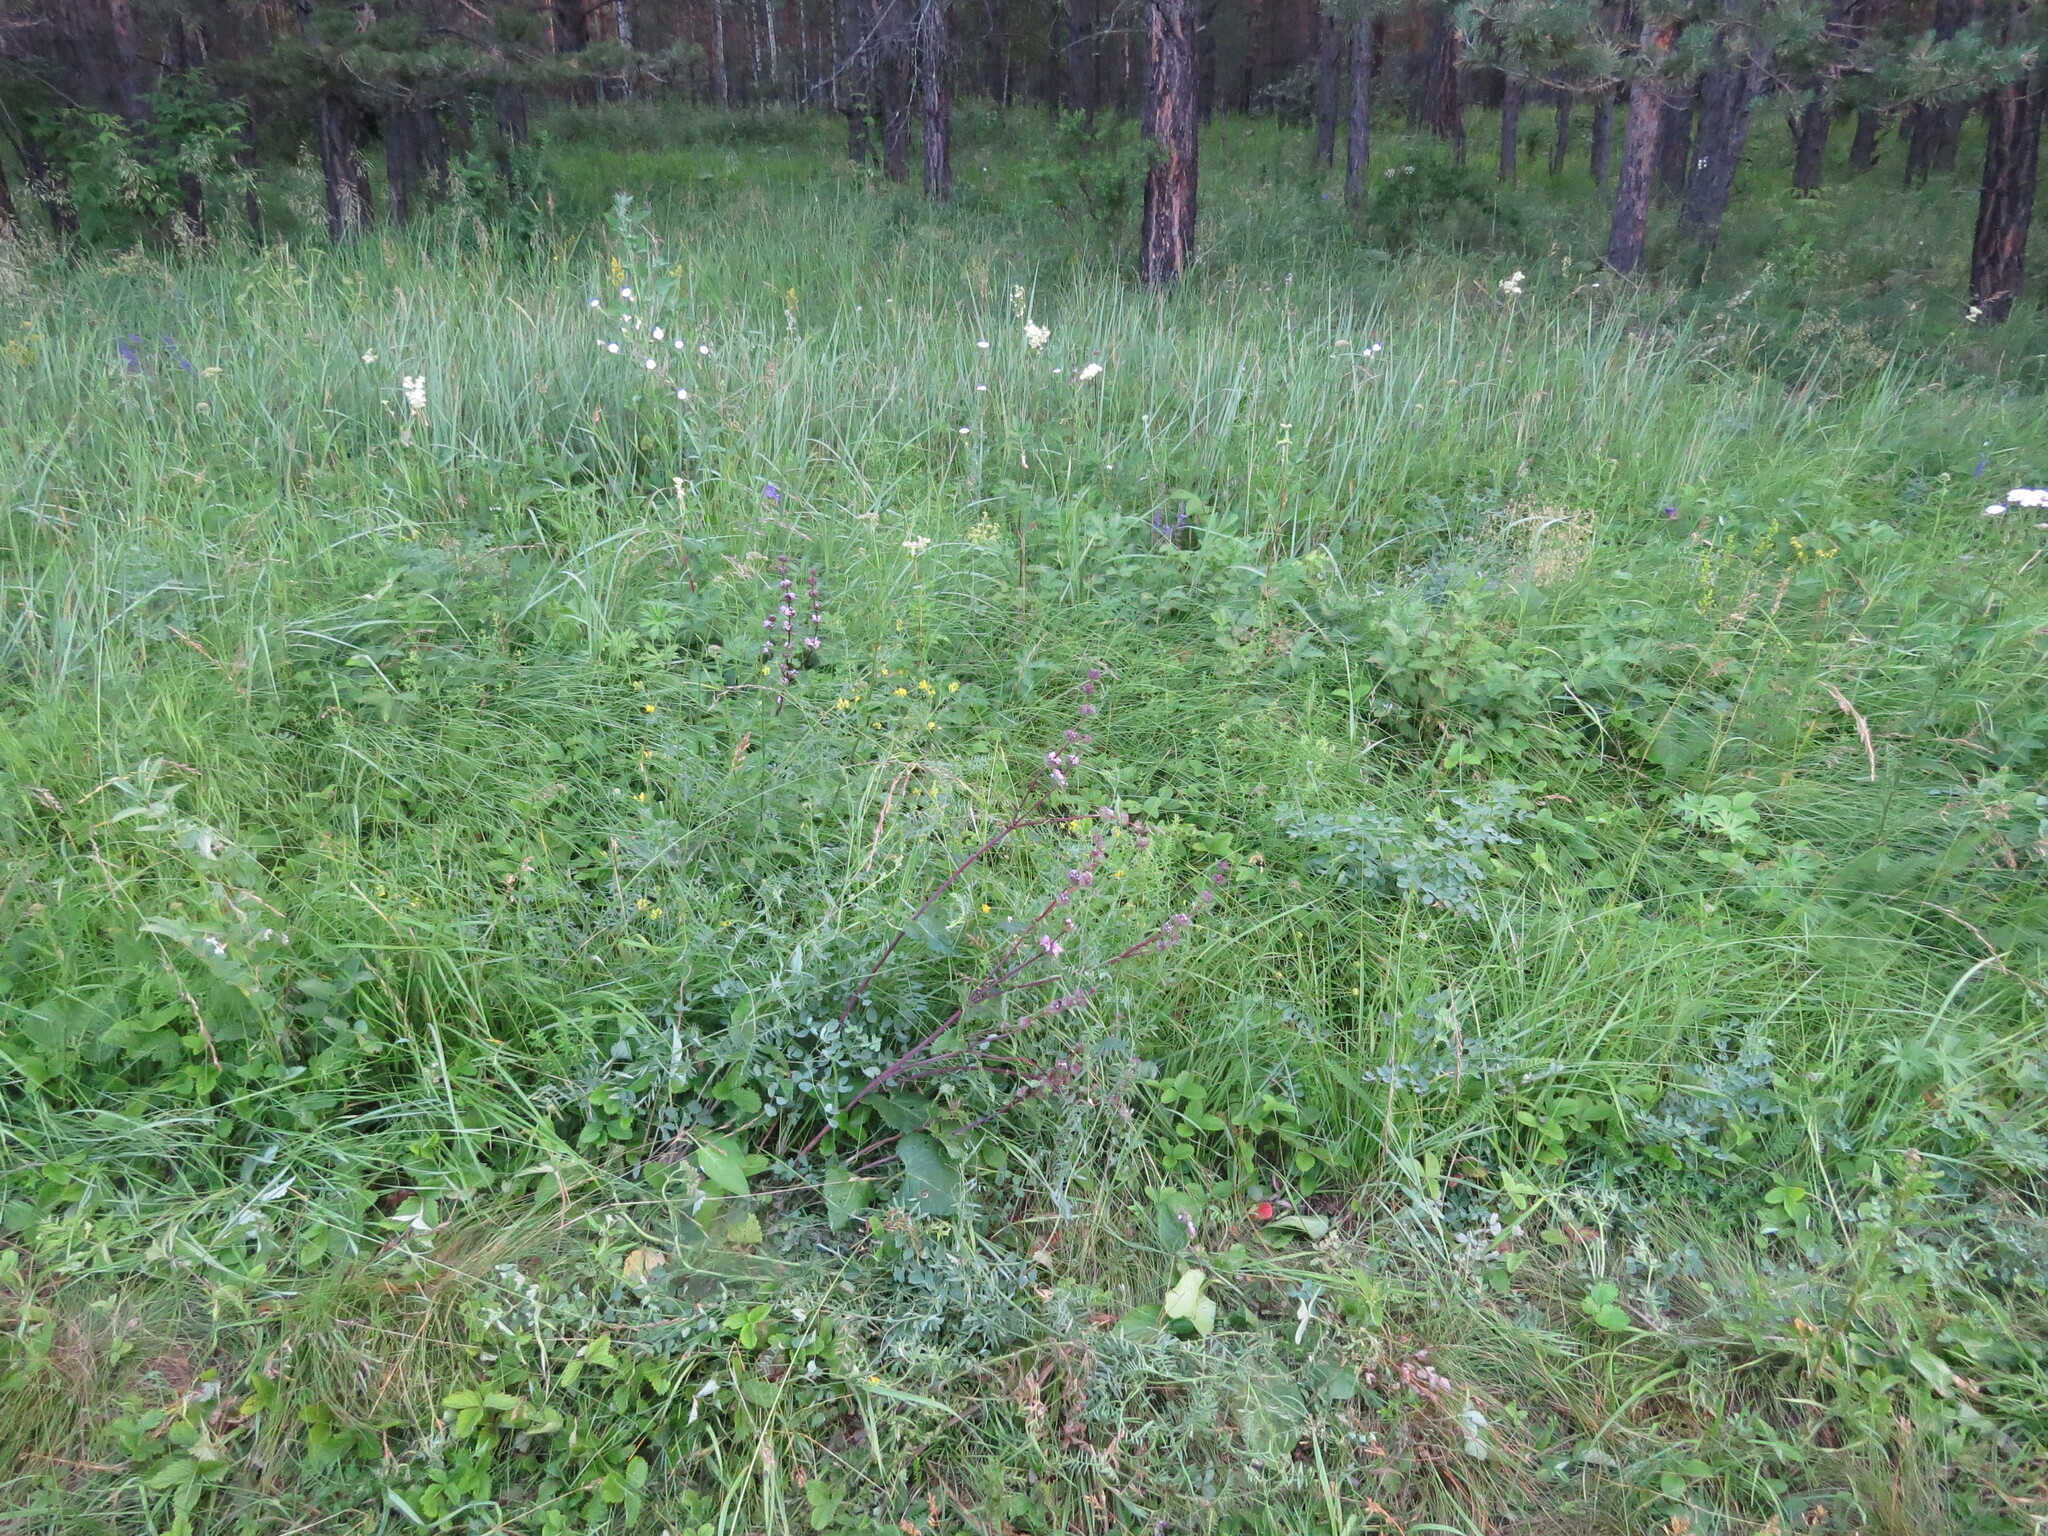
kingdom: Plantae
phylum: Tracheophyta
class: Magnoliopsida
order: Lamiales
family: Lamiaceae
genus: Phlomoides
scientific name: Phlomoides tuberosa
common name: Tuberous jerusalem sage
